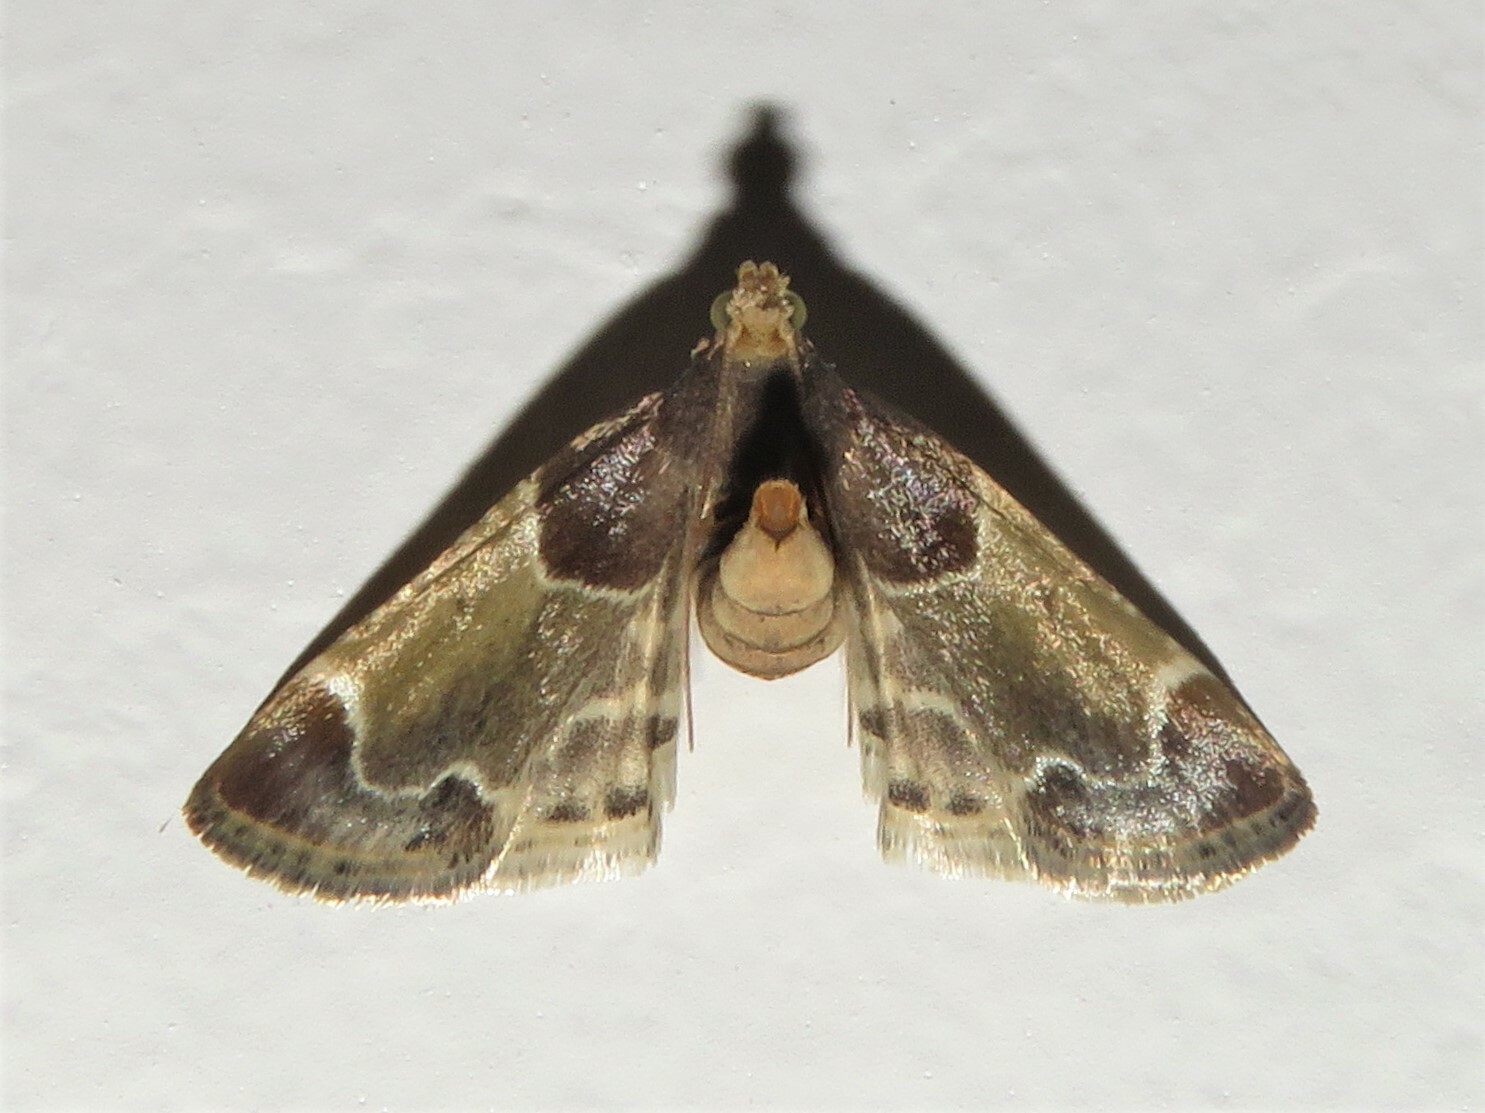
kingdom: Animalia
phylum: Arthropoda
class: Insecta
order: Lepidoptera
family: Pyralidae
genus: Pyralis
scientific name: Pyralis farinalis
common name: Meal moth
